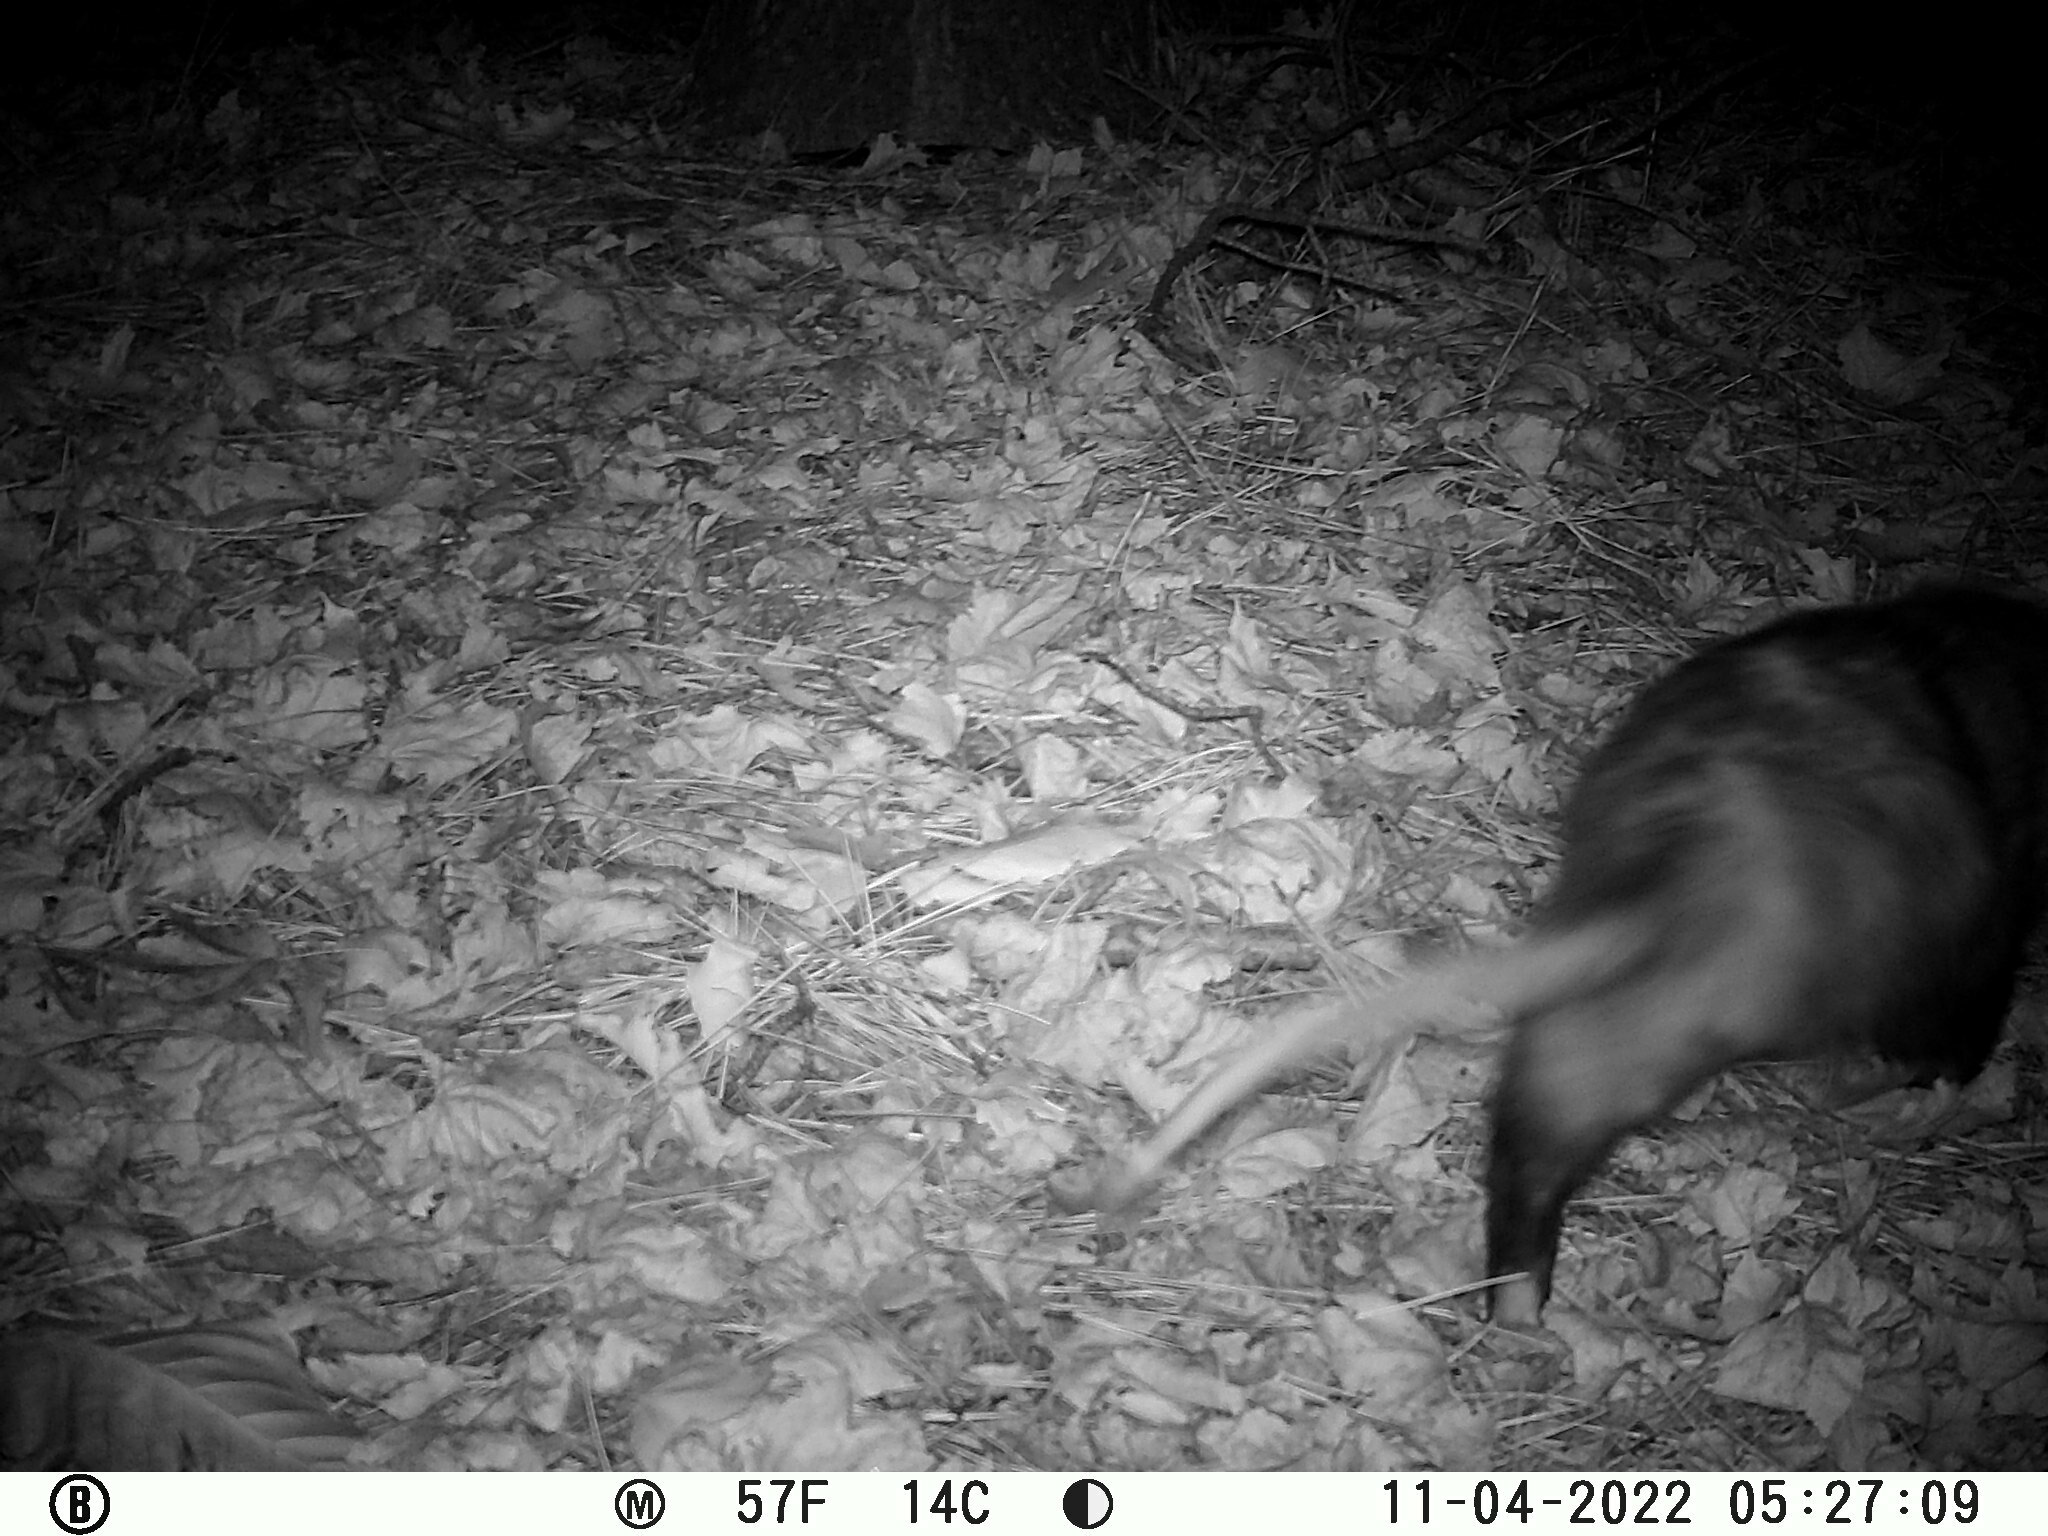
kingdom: Animalia
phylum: Chordata
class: Mammalia
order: Didelphimorphia
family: Didelphidae
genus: Didelphis
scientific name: Didelphis virginiana
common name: Virginia opossum
